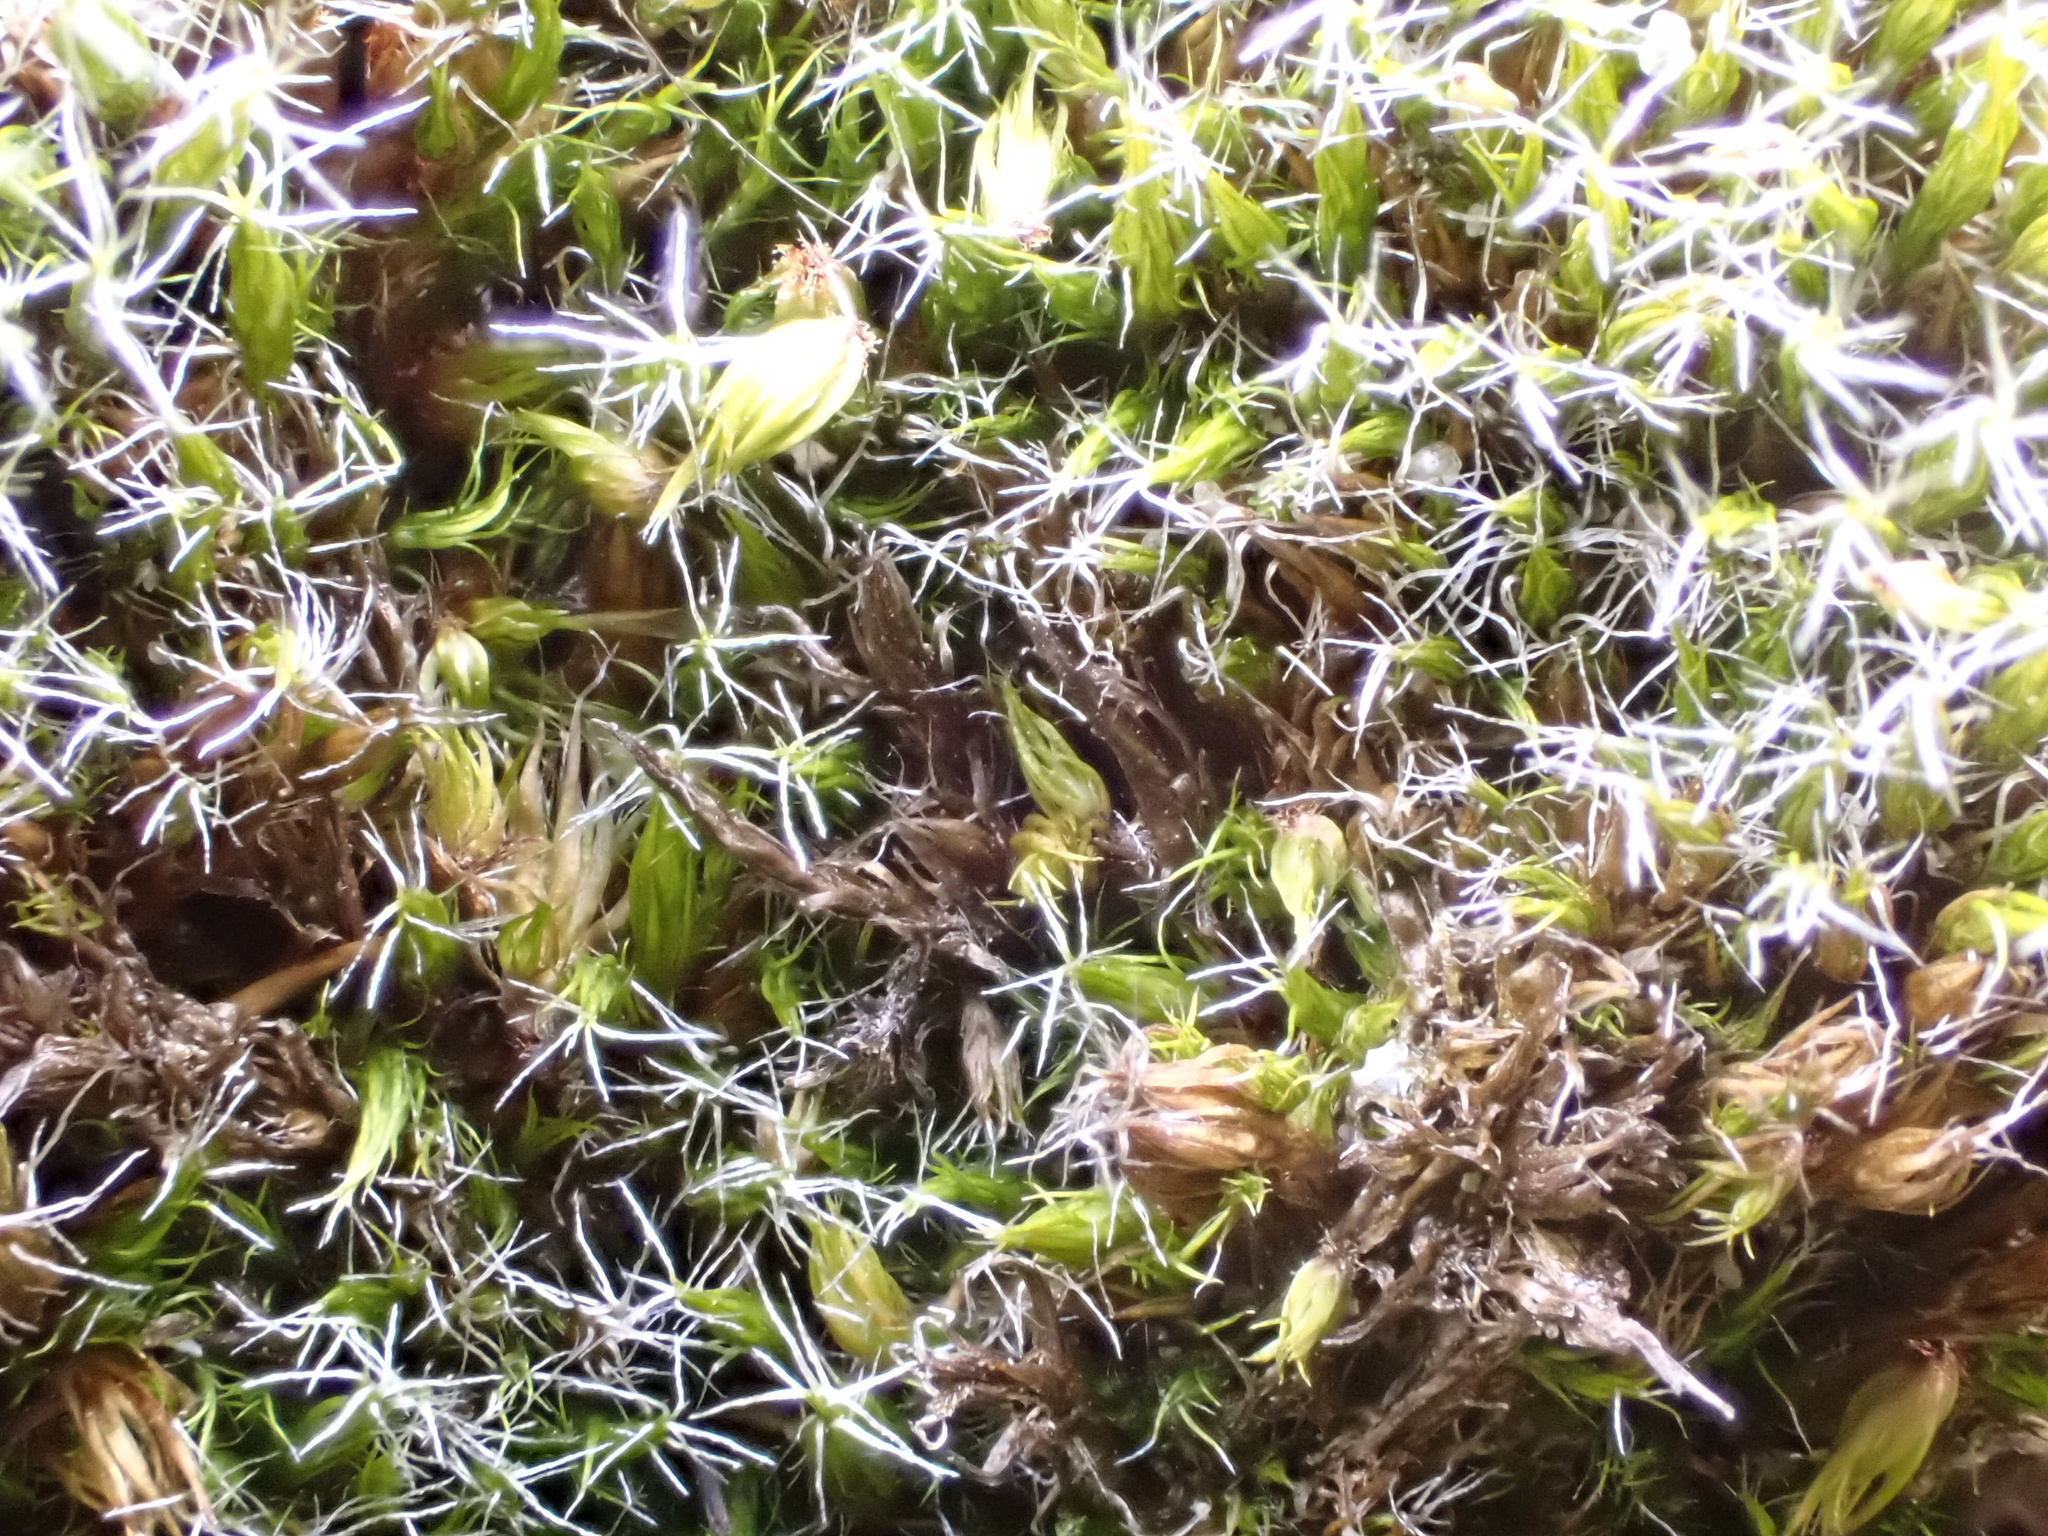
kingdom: Plantae
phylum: Bryophyta
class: Bryopsida
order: Dicranales
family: Leucobryaceae
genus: Campylopus
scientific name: Campylopus introflexus
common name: Heath star moss
